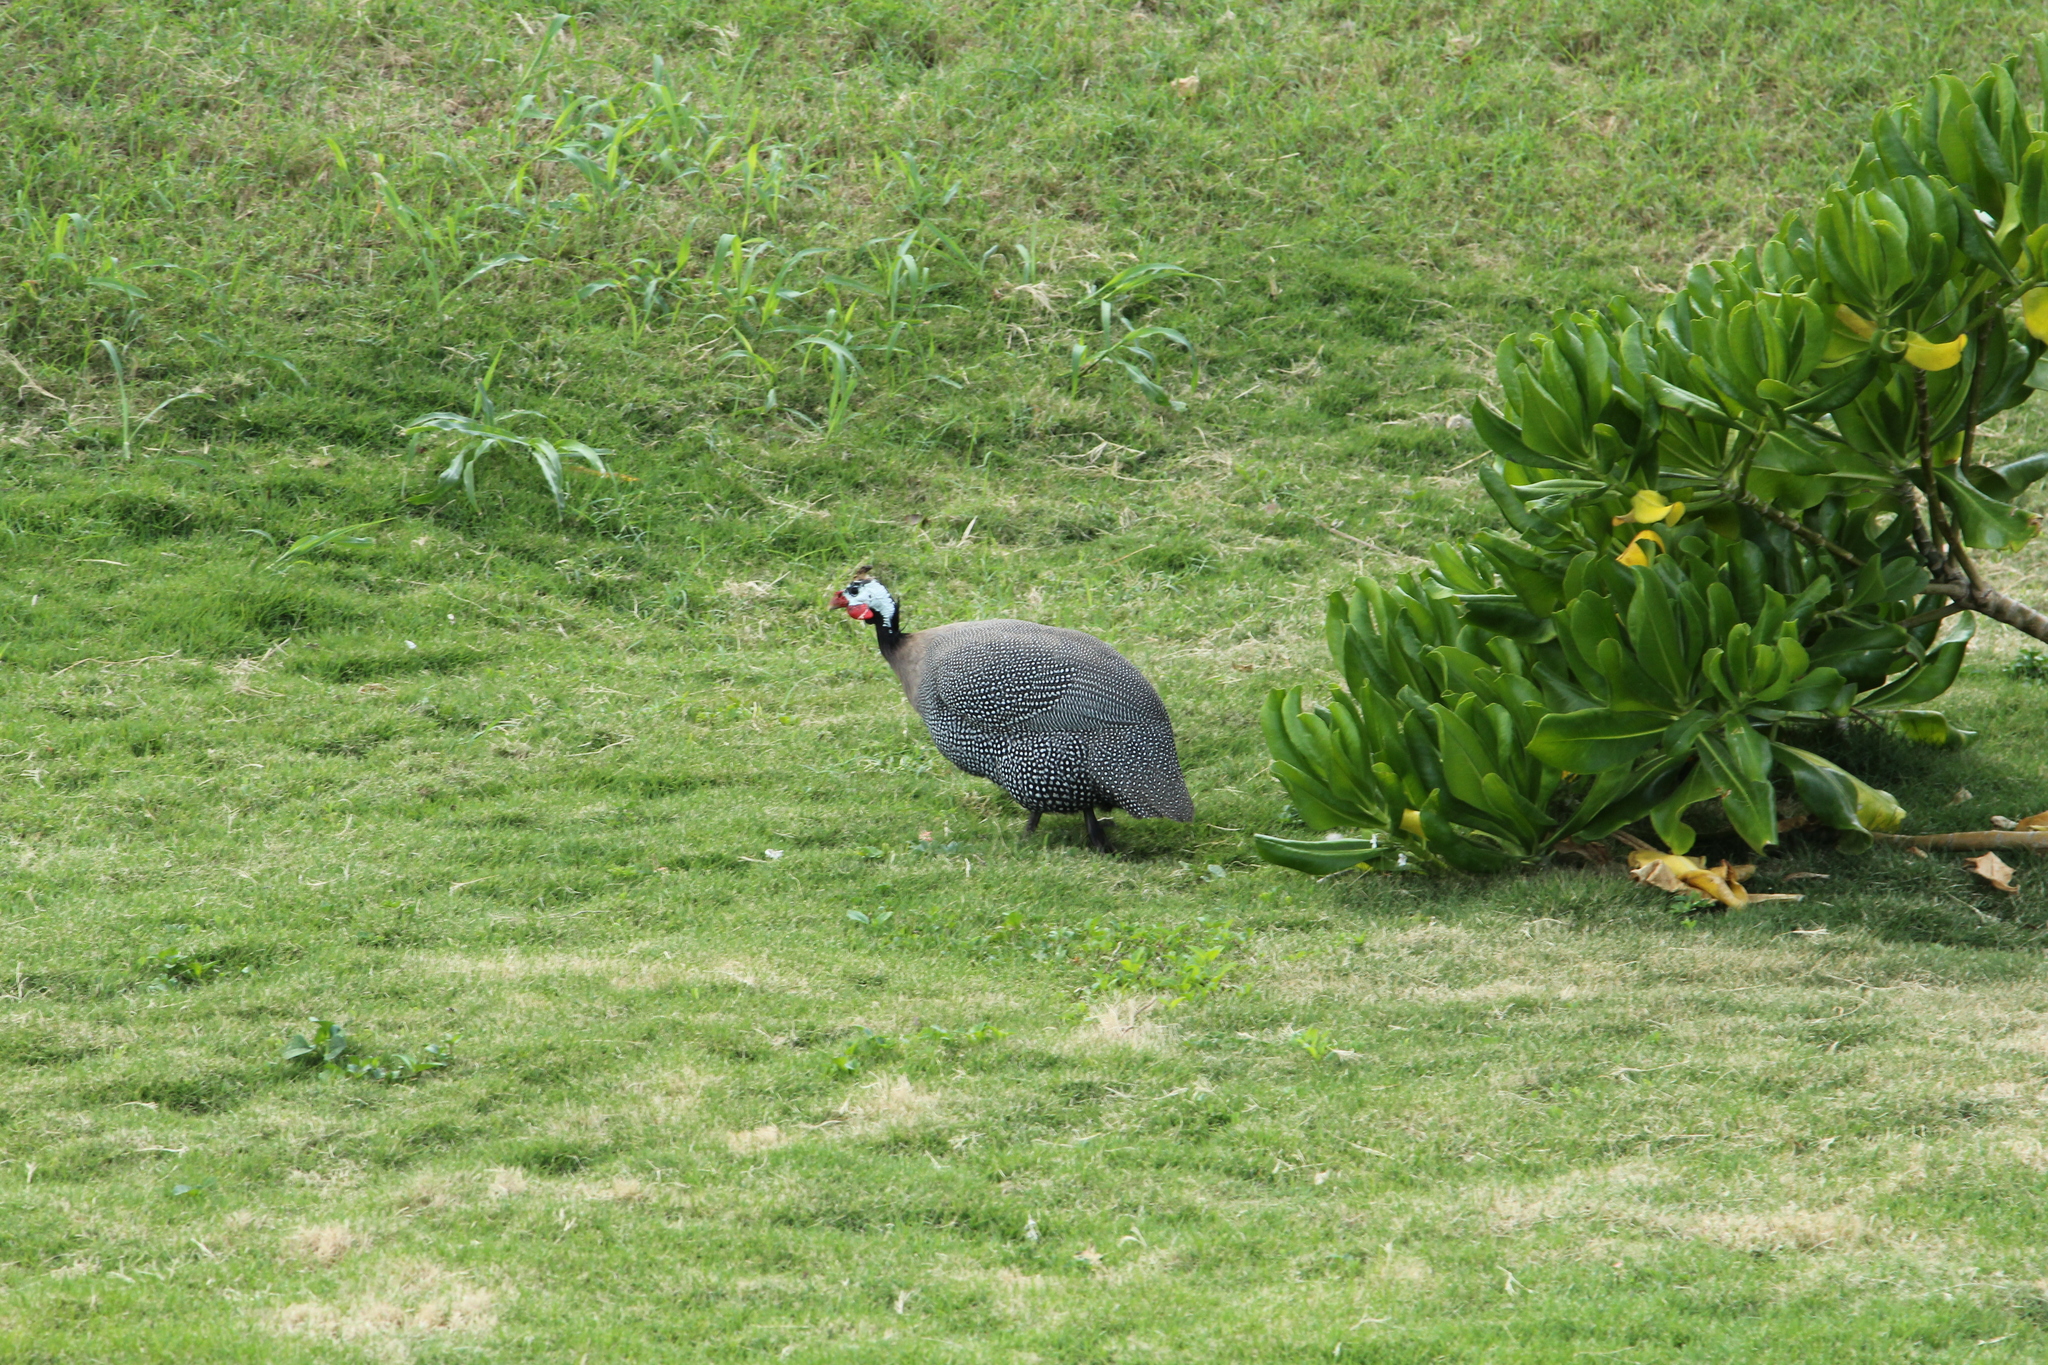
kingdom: Animalia
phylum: Chordata
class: Aves
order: Galliformes
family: Numididae
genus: Numida
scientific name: Numida meleagris
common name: Helmeted guineafowl
